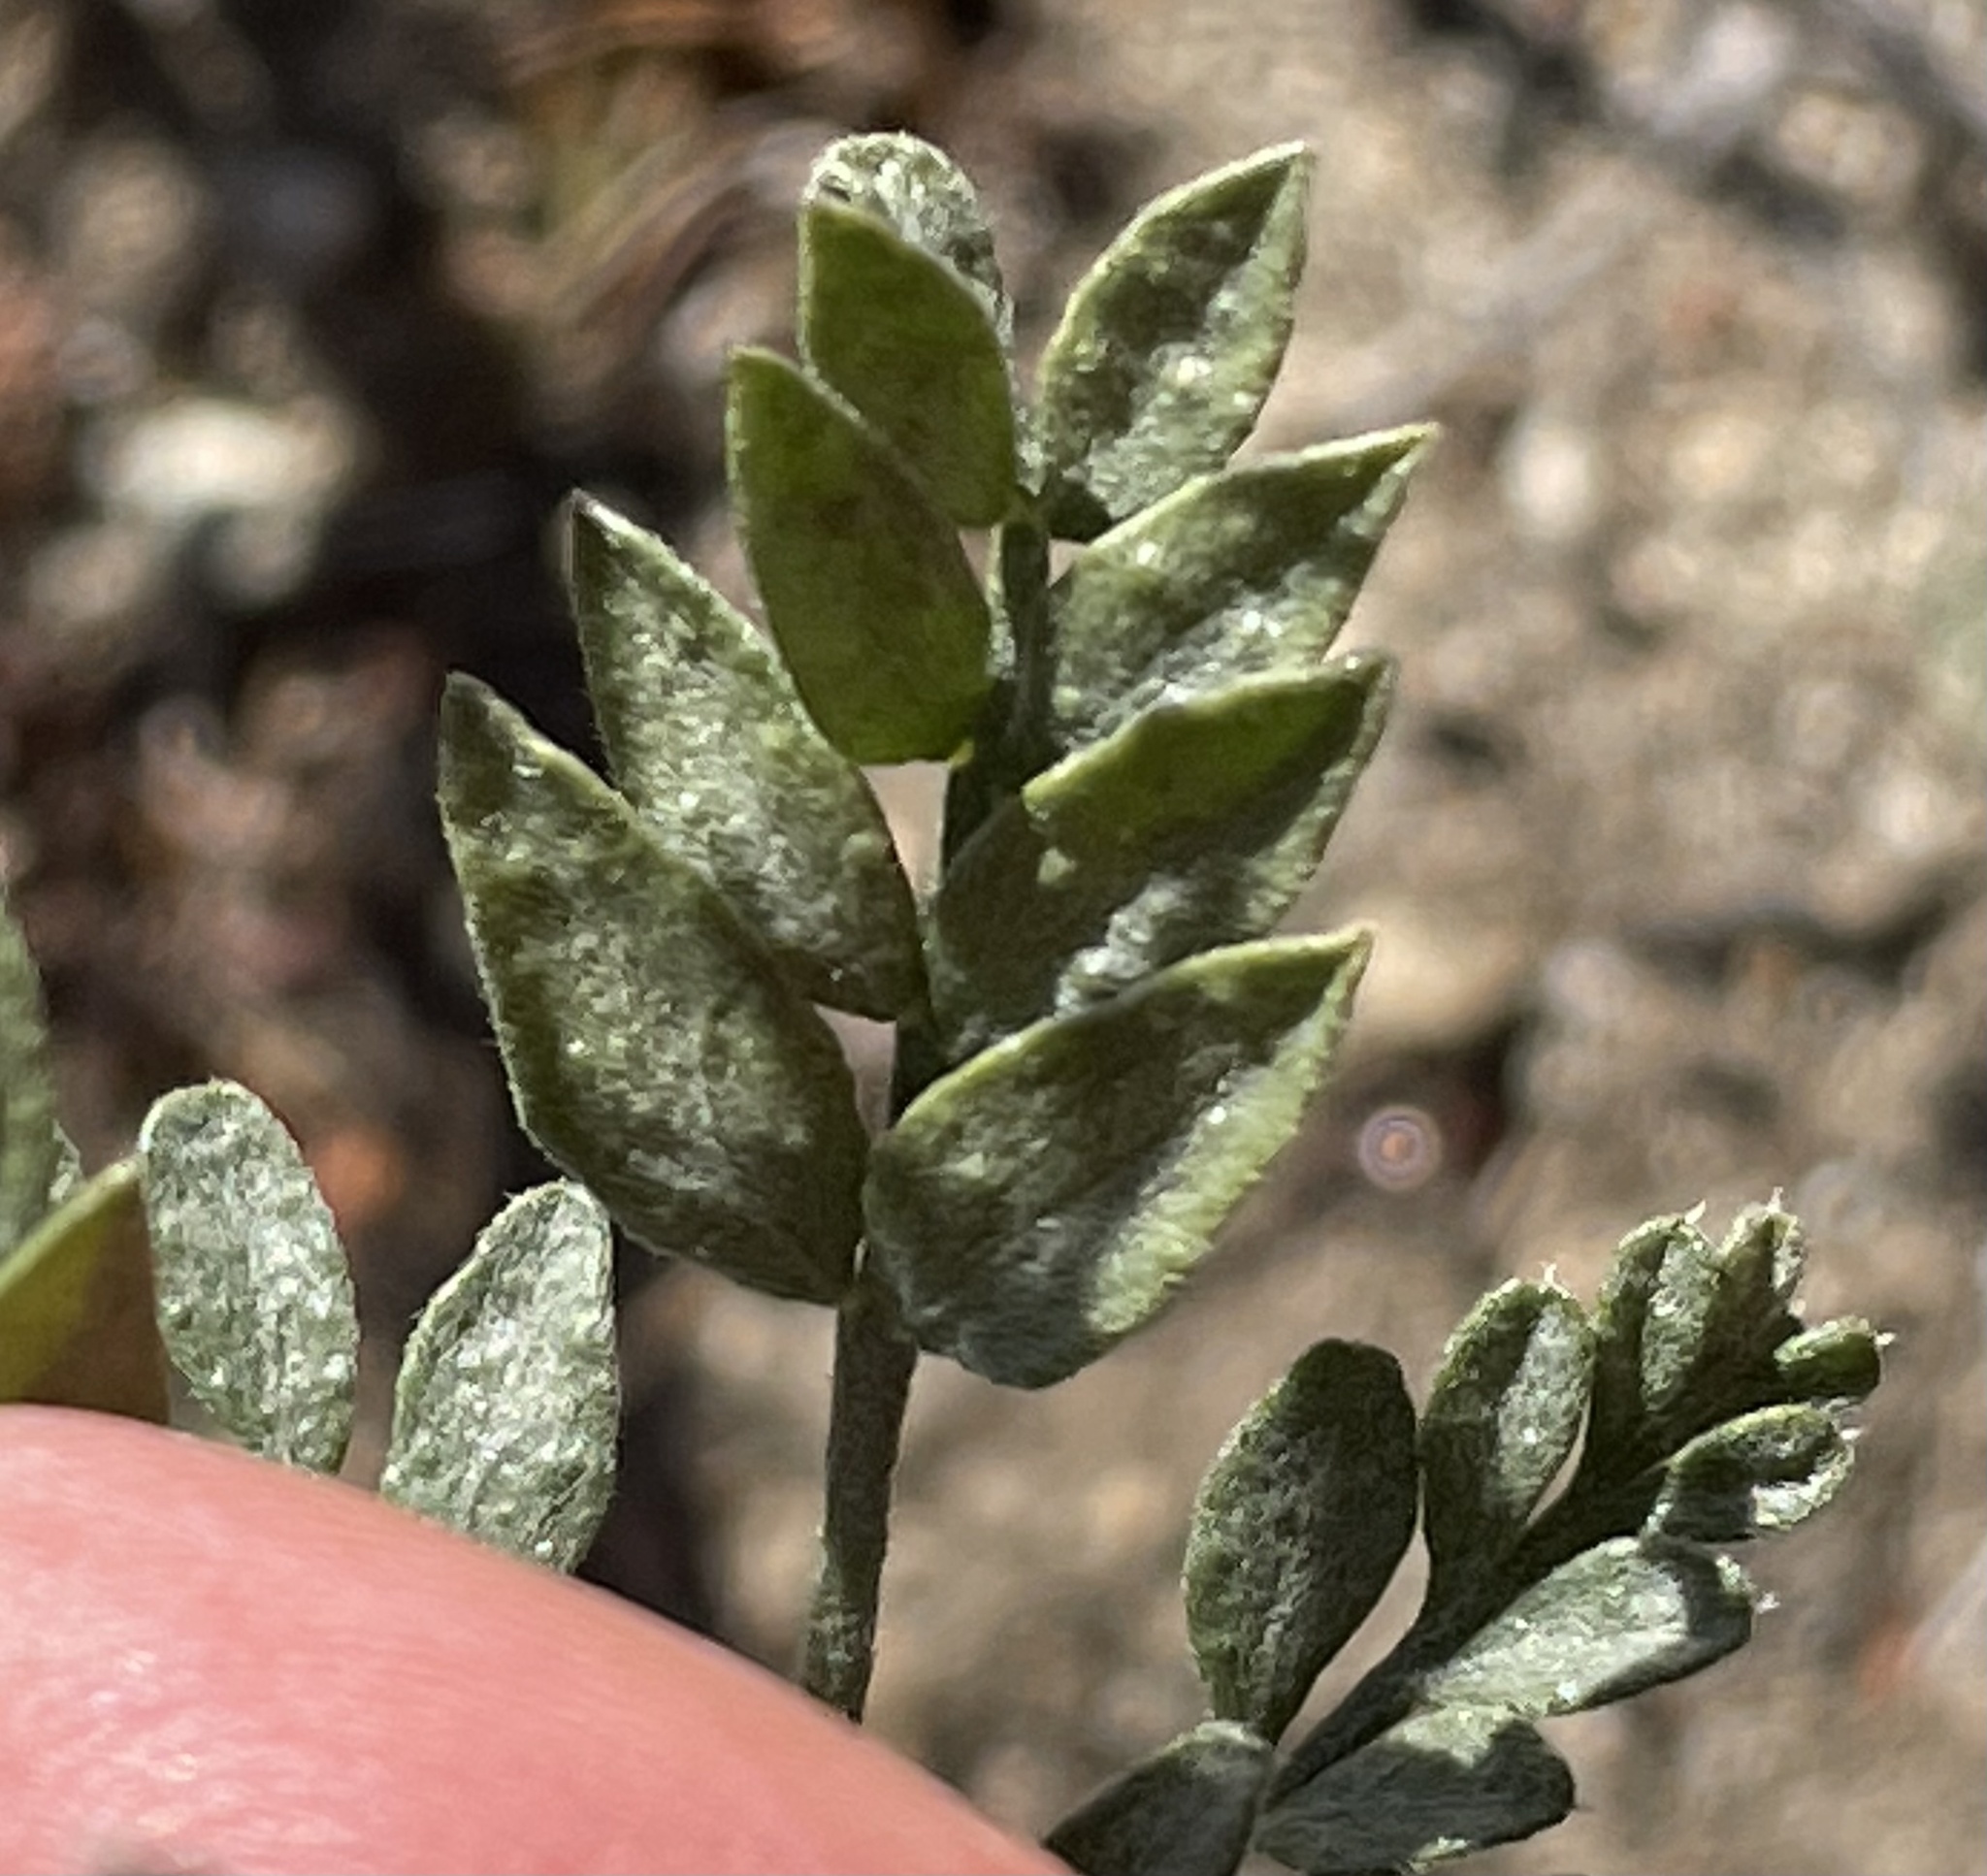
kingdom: Plantae
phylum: Tracheophyta
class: Magnoliopsida
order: Fabales
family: Fabaceae
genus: Psorothamnus
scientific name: Psorothamnus arborescens
